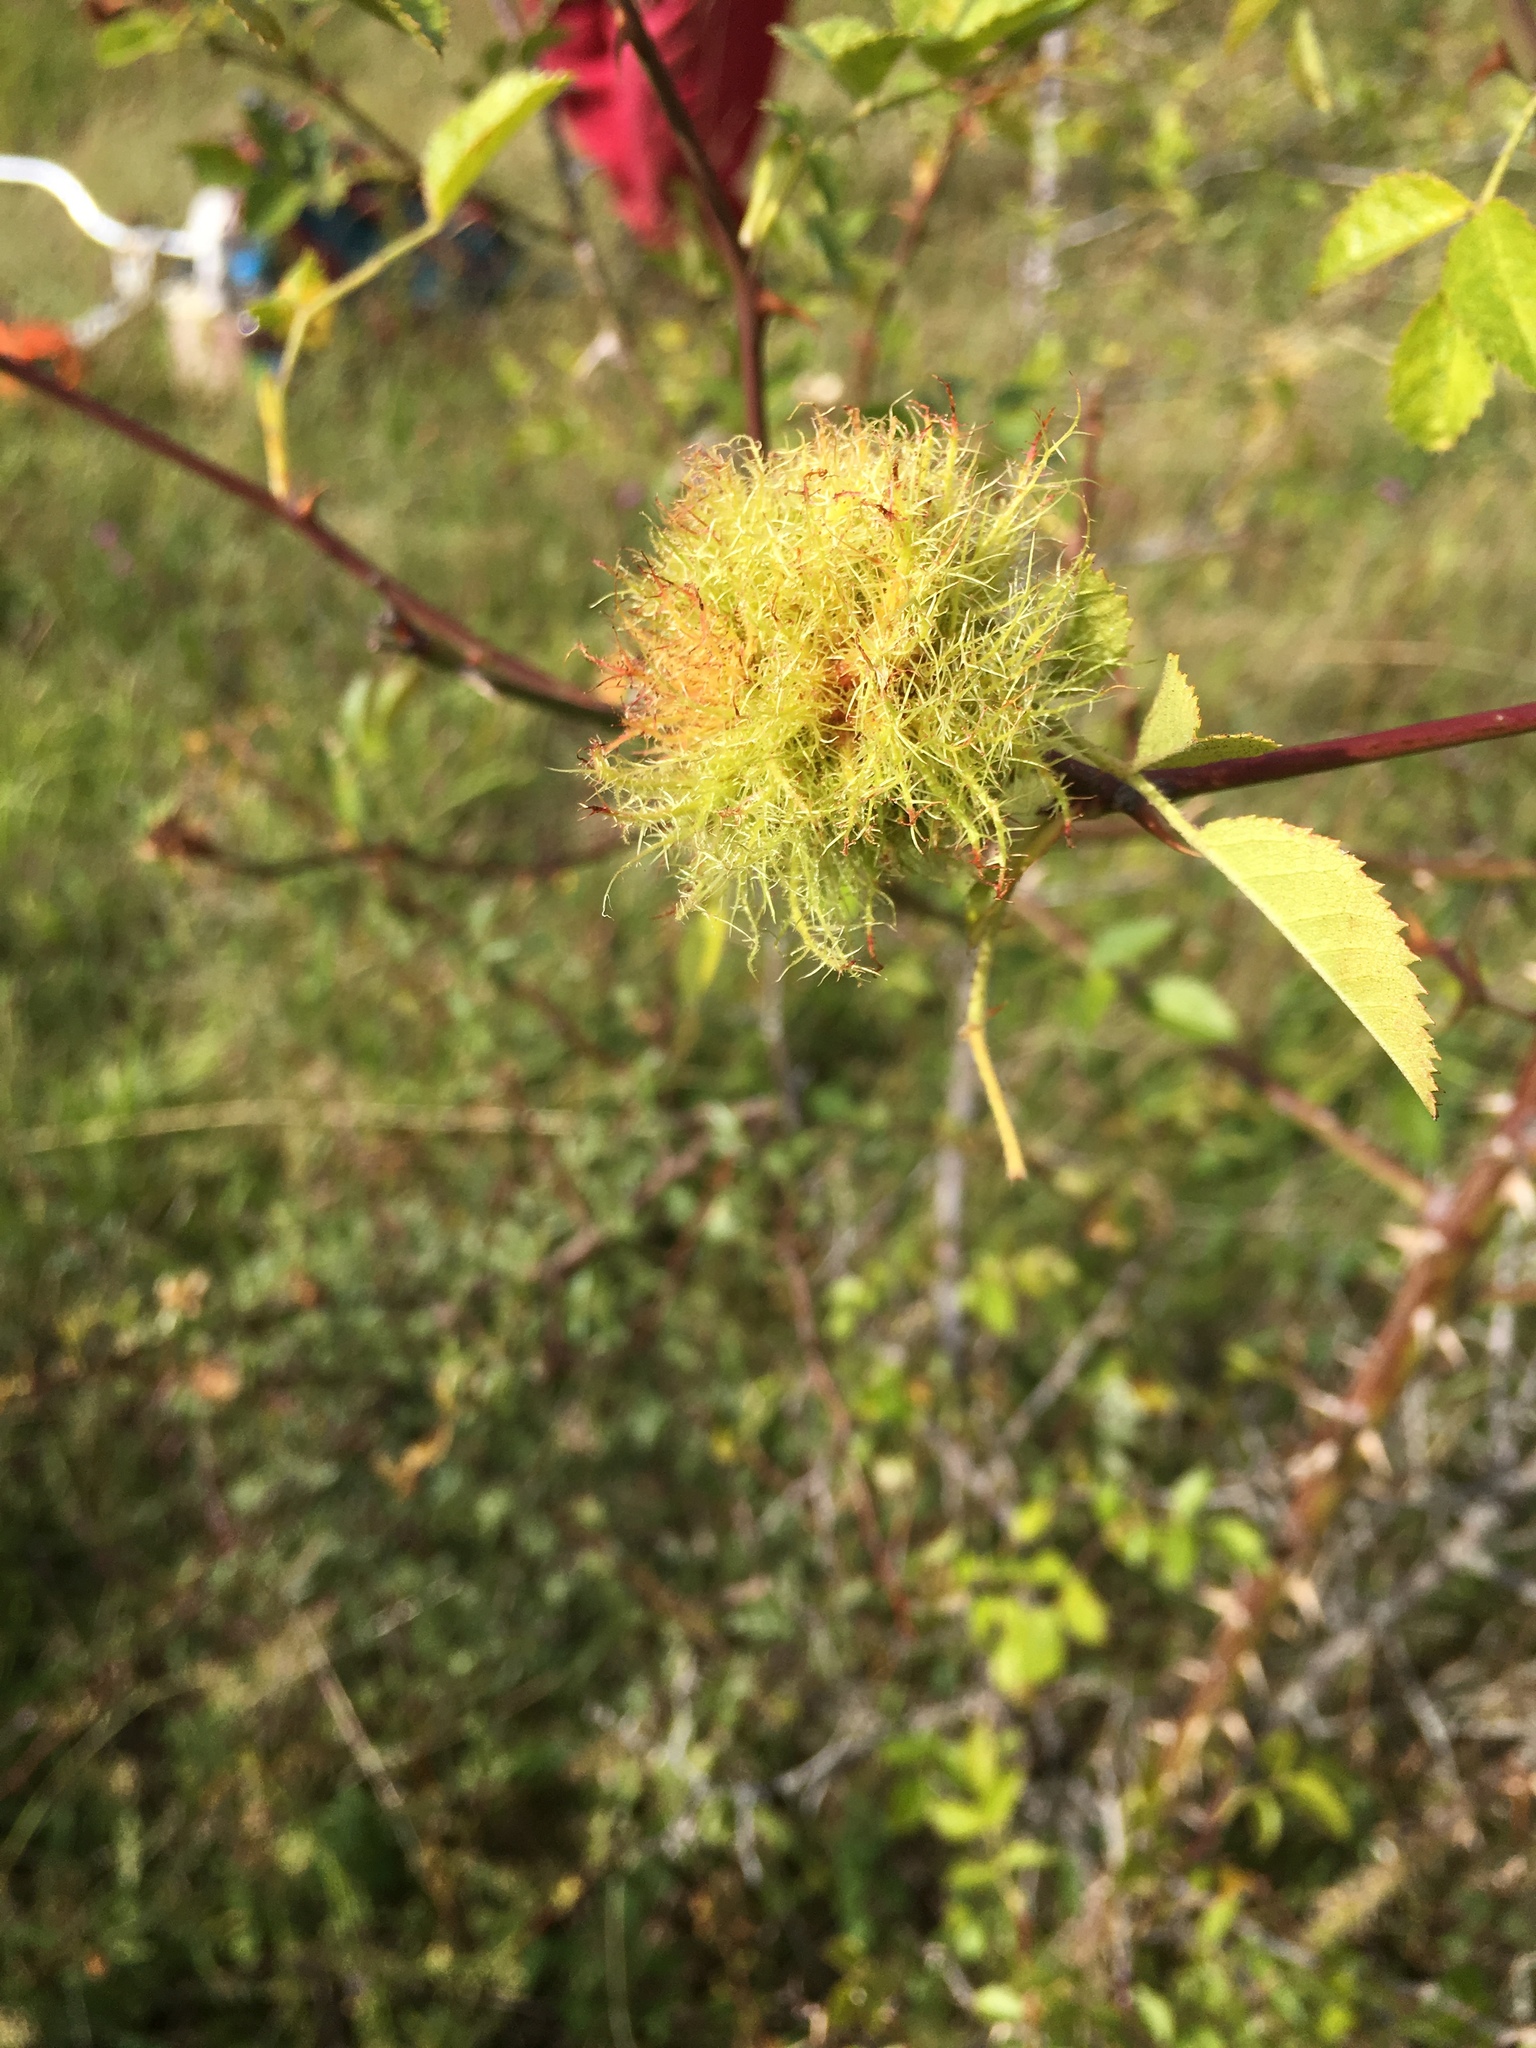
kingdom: Animalia
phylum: Arthropoda
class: Insecta
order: Hymenoptera
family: Cynipidae
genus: Diplolepis
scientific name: Diplolepis rosae
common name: Bedeguar gall
